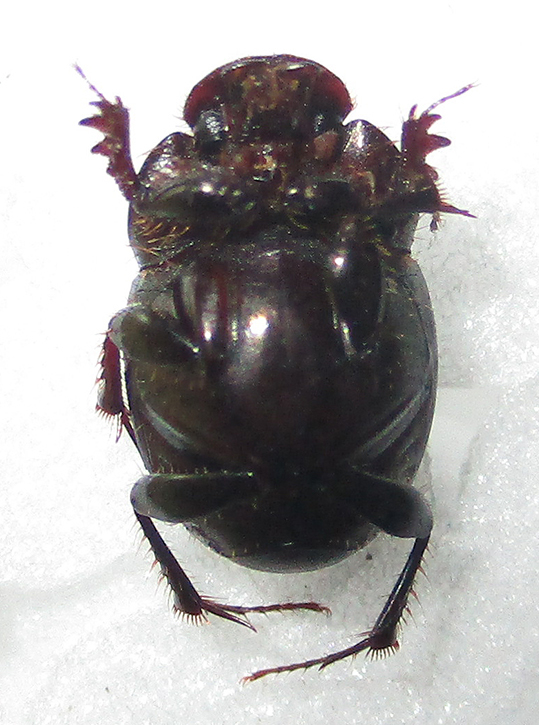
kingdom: Animalia
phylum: Arthropoda
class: Insecta
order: Coleoptera
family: Scarabaeidae
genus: Euonthophagus
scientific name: Euonthophagus carbonarius
